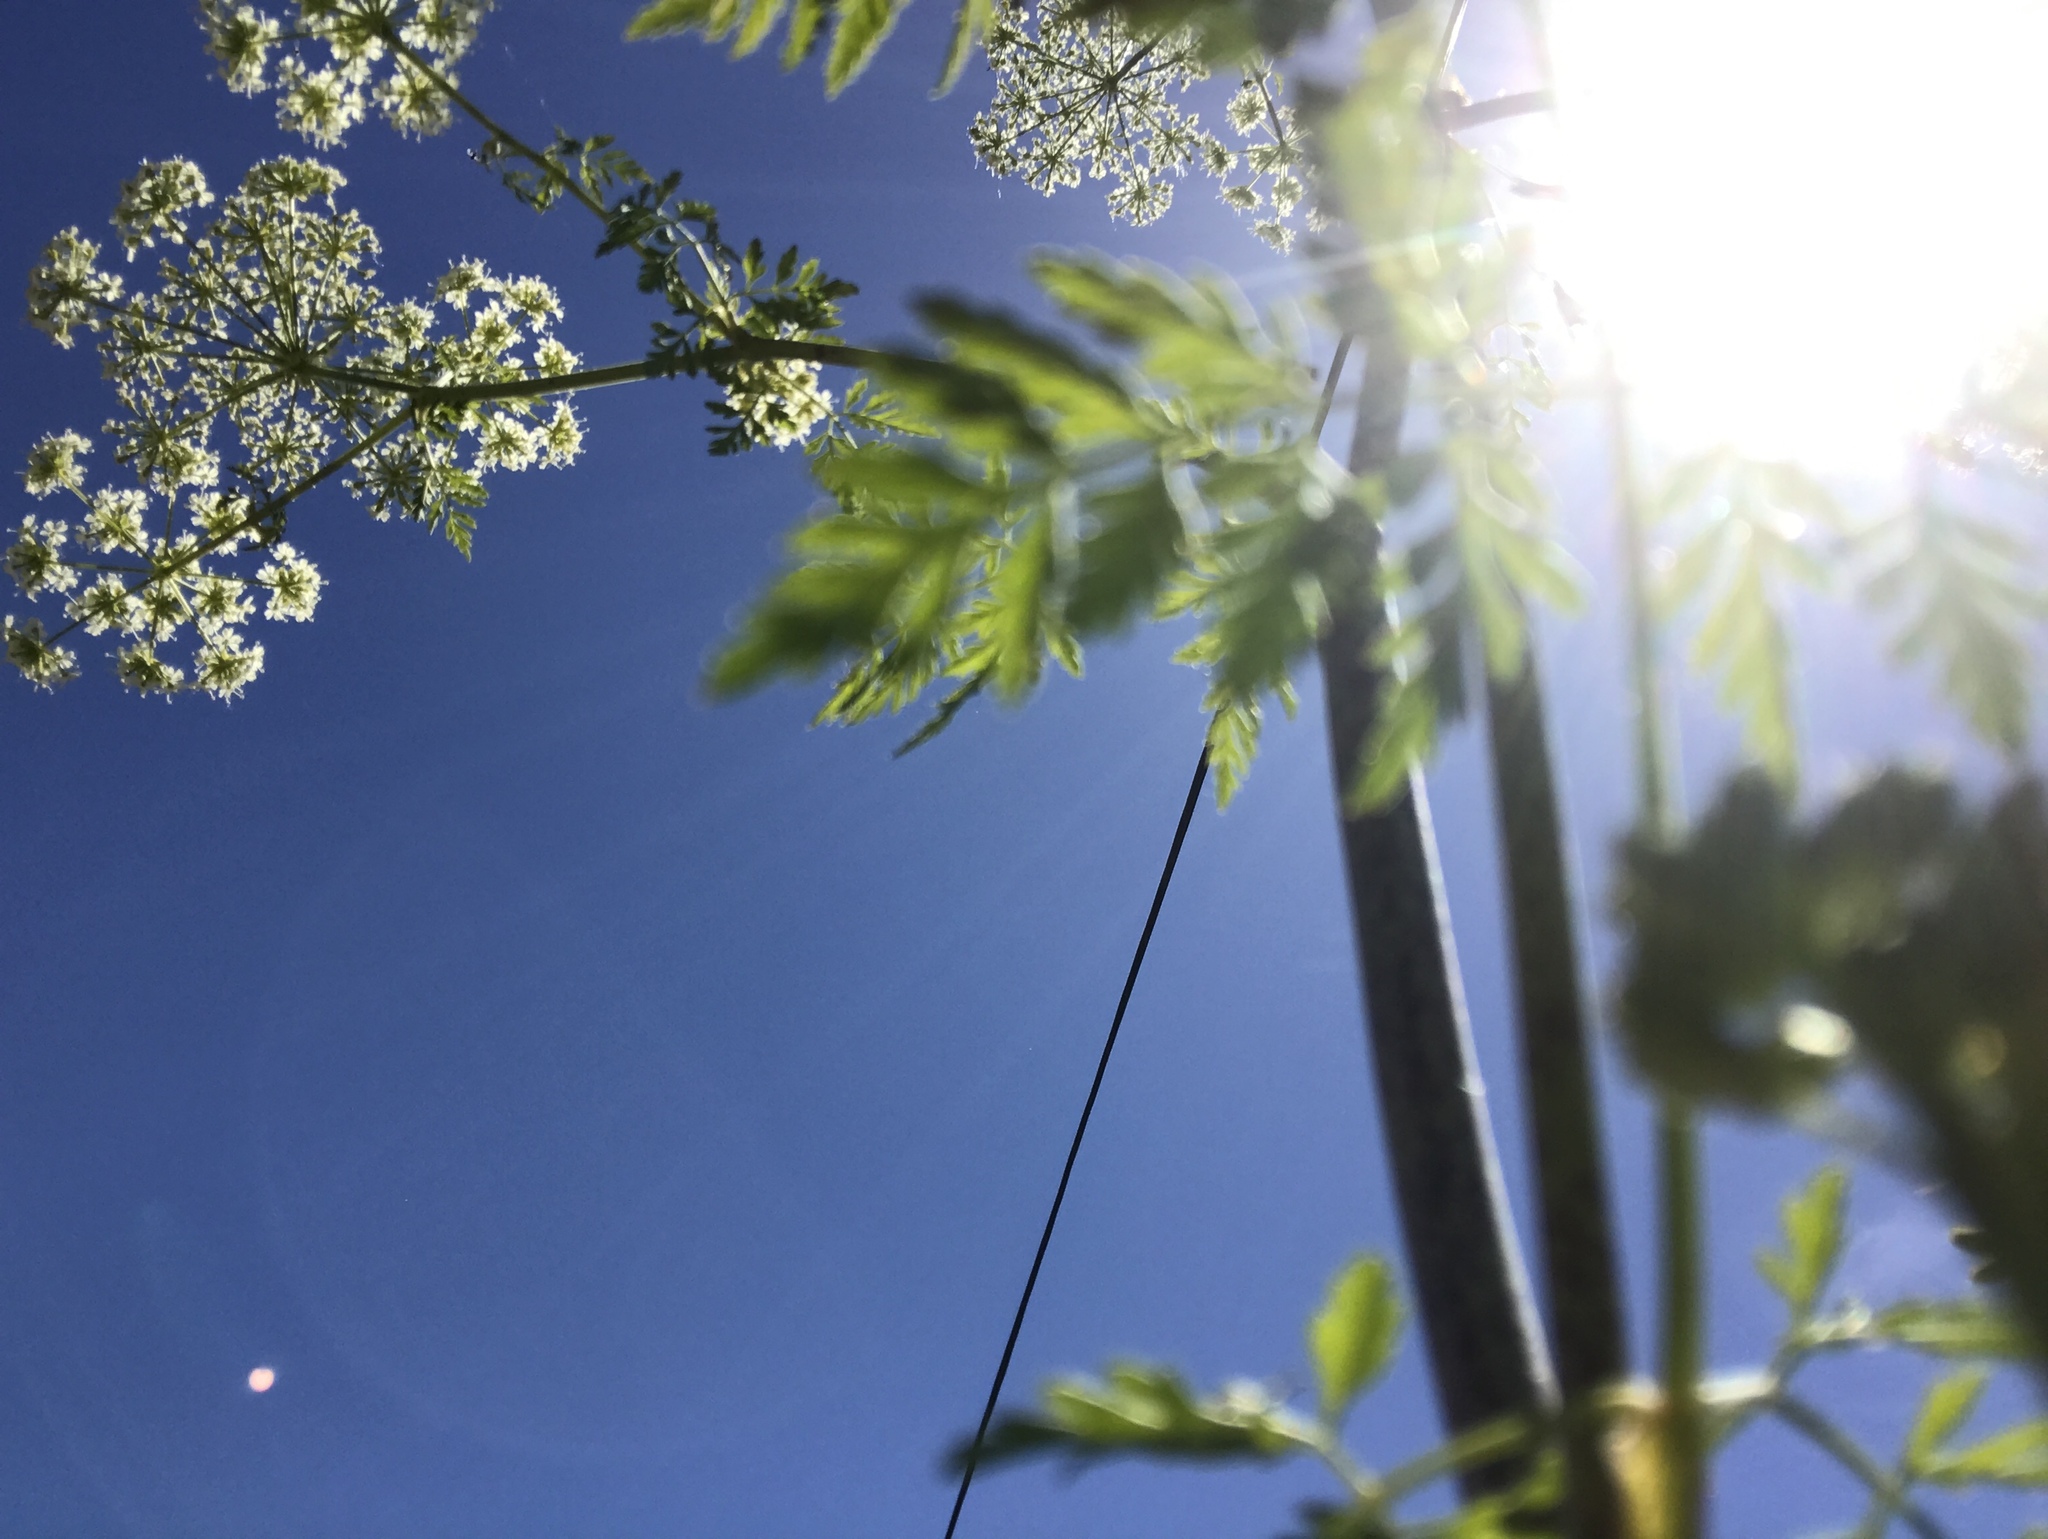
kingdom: Plantae
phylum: Tracheophyta
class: Magnoliopsida
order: Apiales
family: Apiaceae
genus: Conium
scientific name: Conium maculatum
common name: Hemlock
